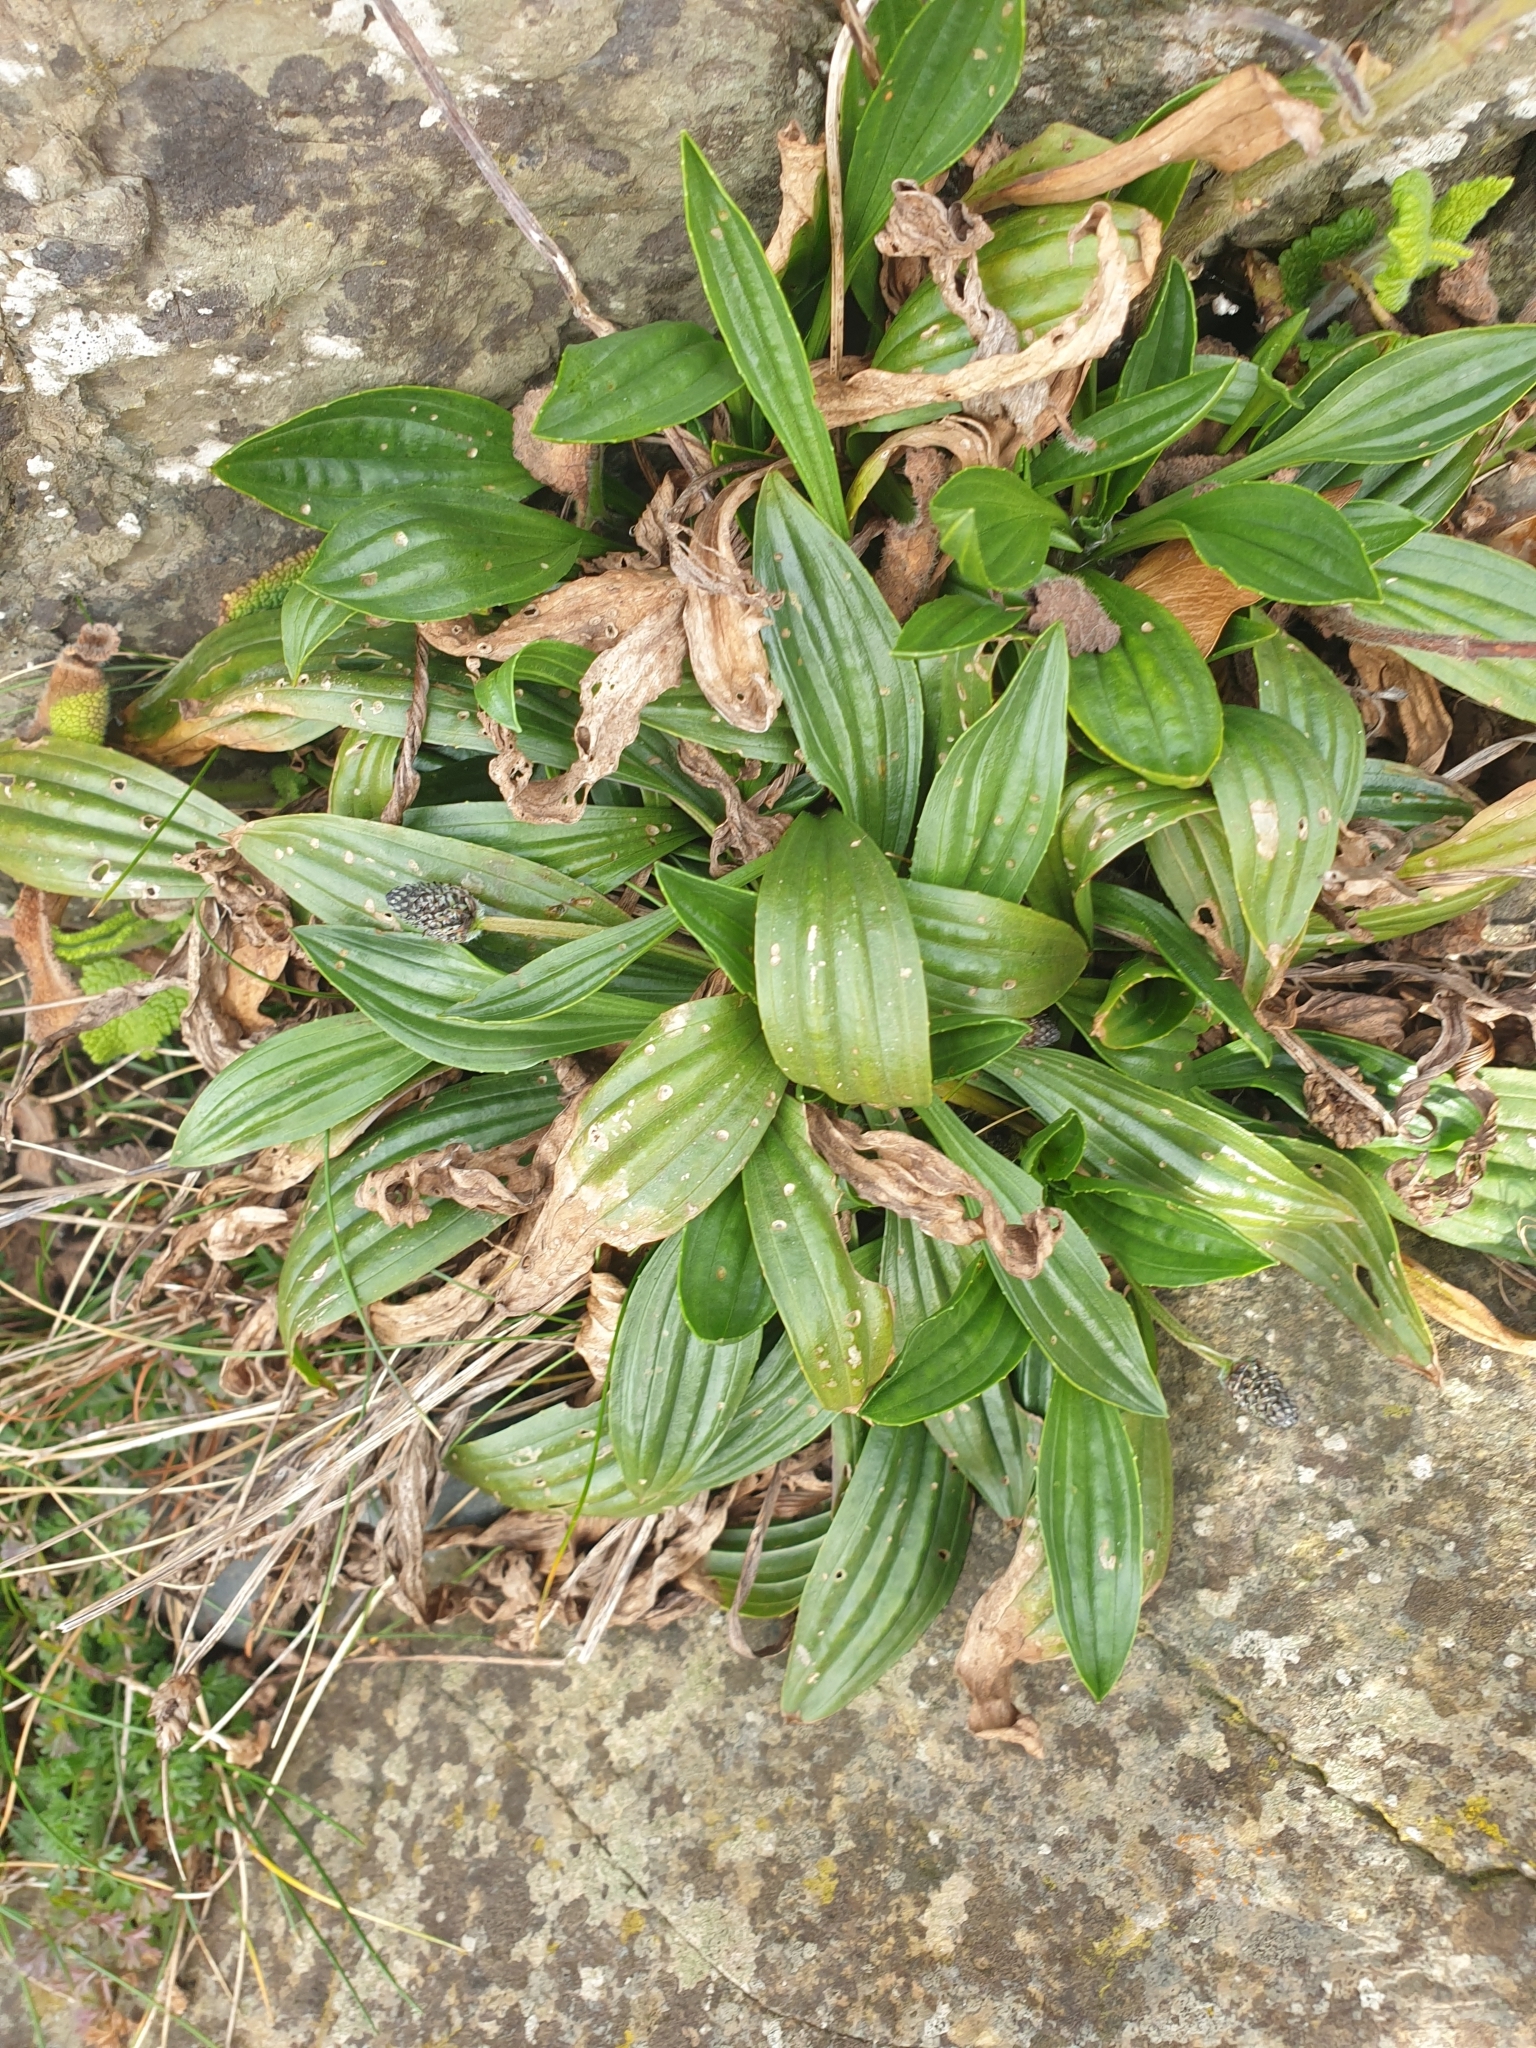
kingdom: Plantae
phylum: Tracheophyta
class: Magnoliopsida
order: Lamiales
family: Plantaginaceae
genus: Plantago
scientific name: Plantago lanceolata
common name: Ribwort plantain
